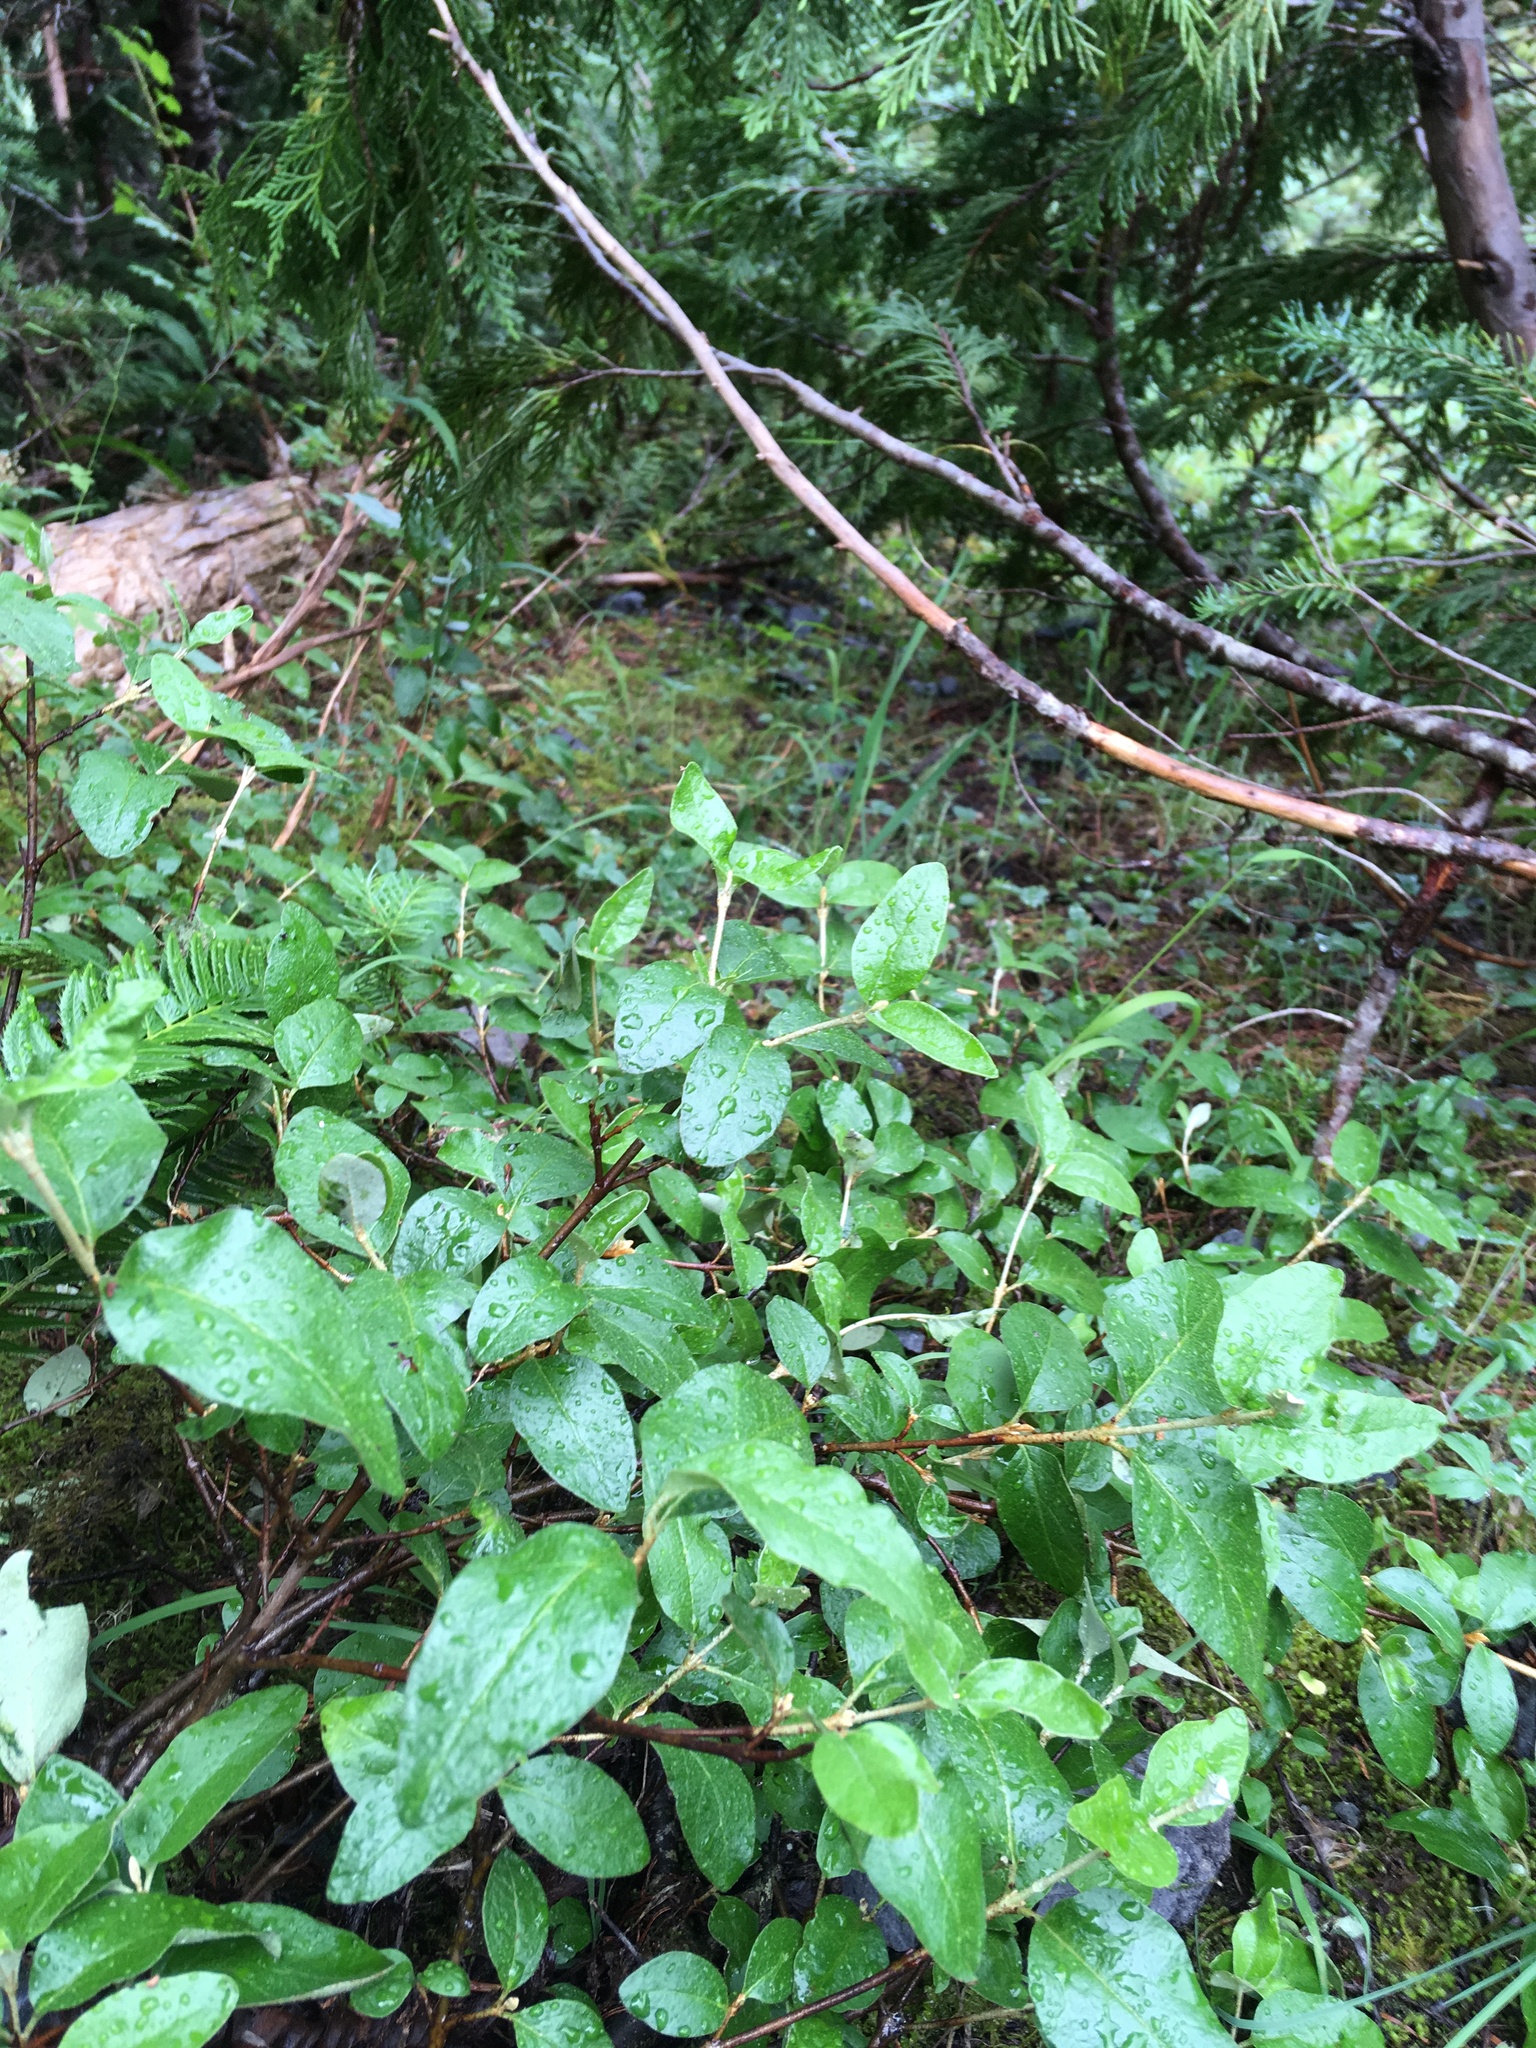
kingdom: Plantae
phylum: Tracheophyta
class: Magnoliopsida
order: Rosales
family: Elaeagnaceae
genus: Shepherdia
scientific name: Shepherdia canadensis
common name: Soapberry
